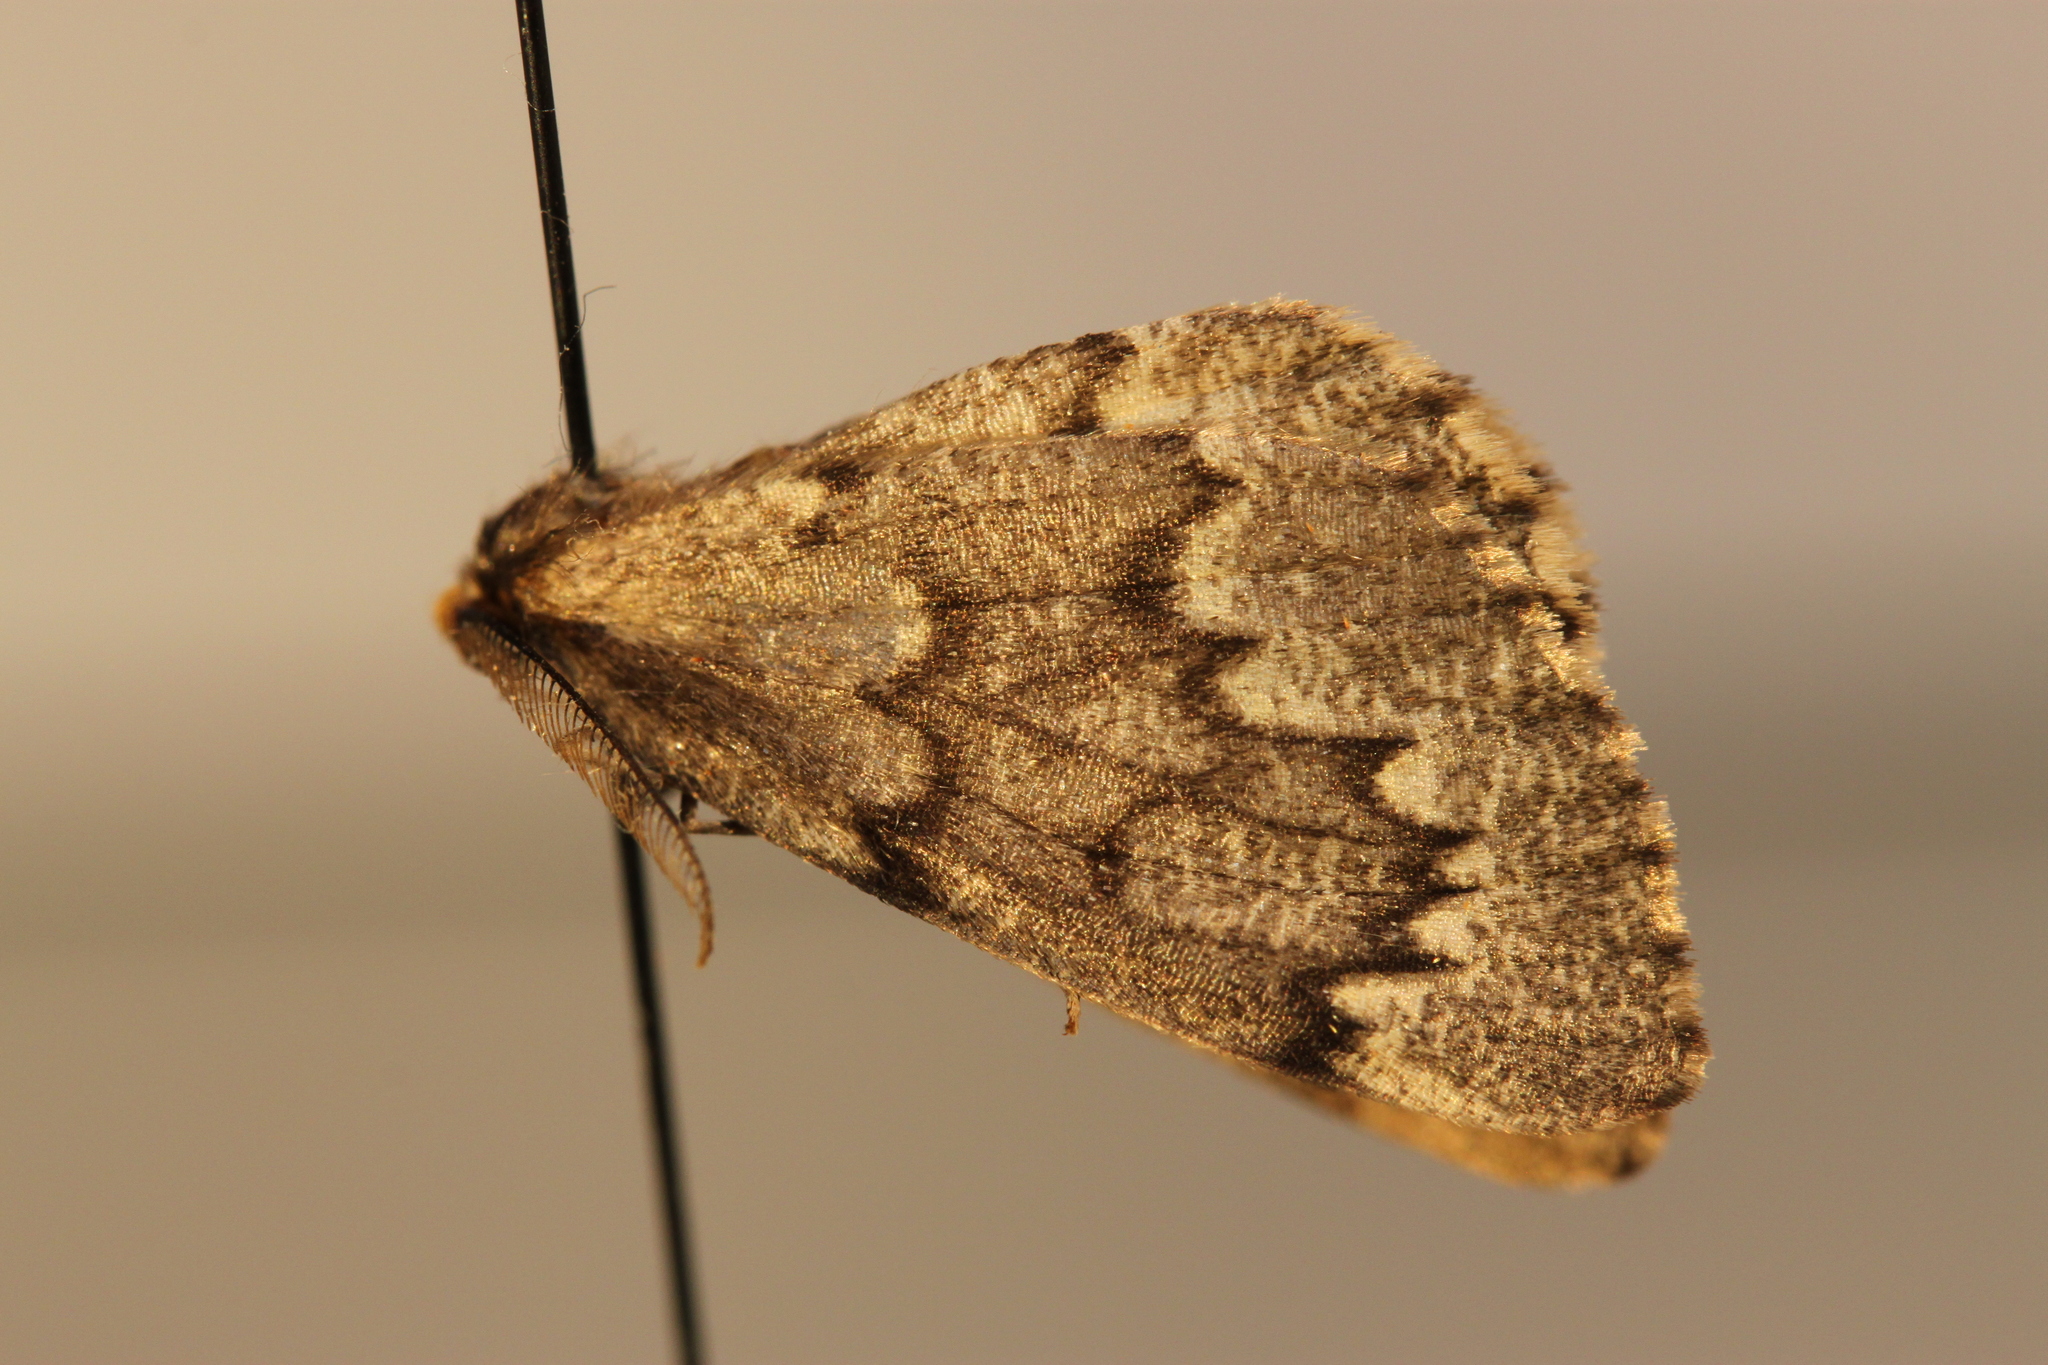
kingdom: Animalia
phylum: Arthropoda
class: Insecta
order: Lepidoptera
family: Geometridae
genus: Nepytia
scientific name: Nepytia canosaria
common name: False hemlock looper
